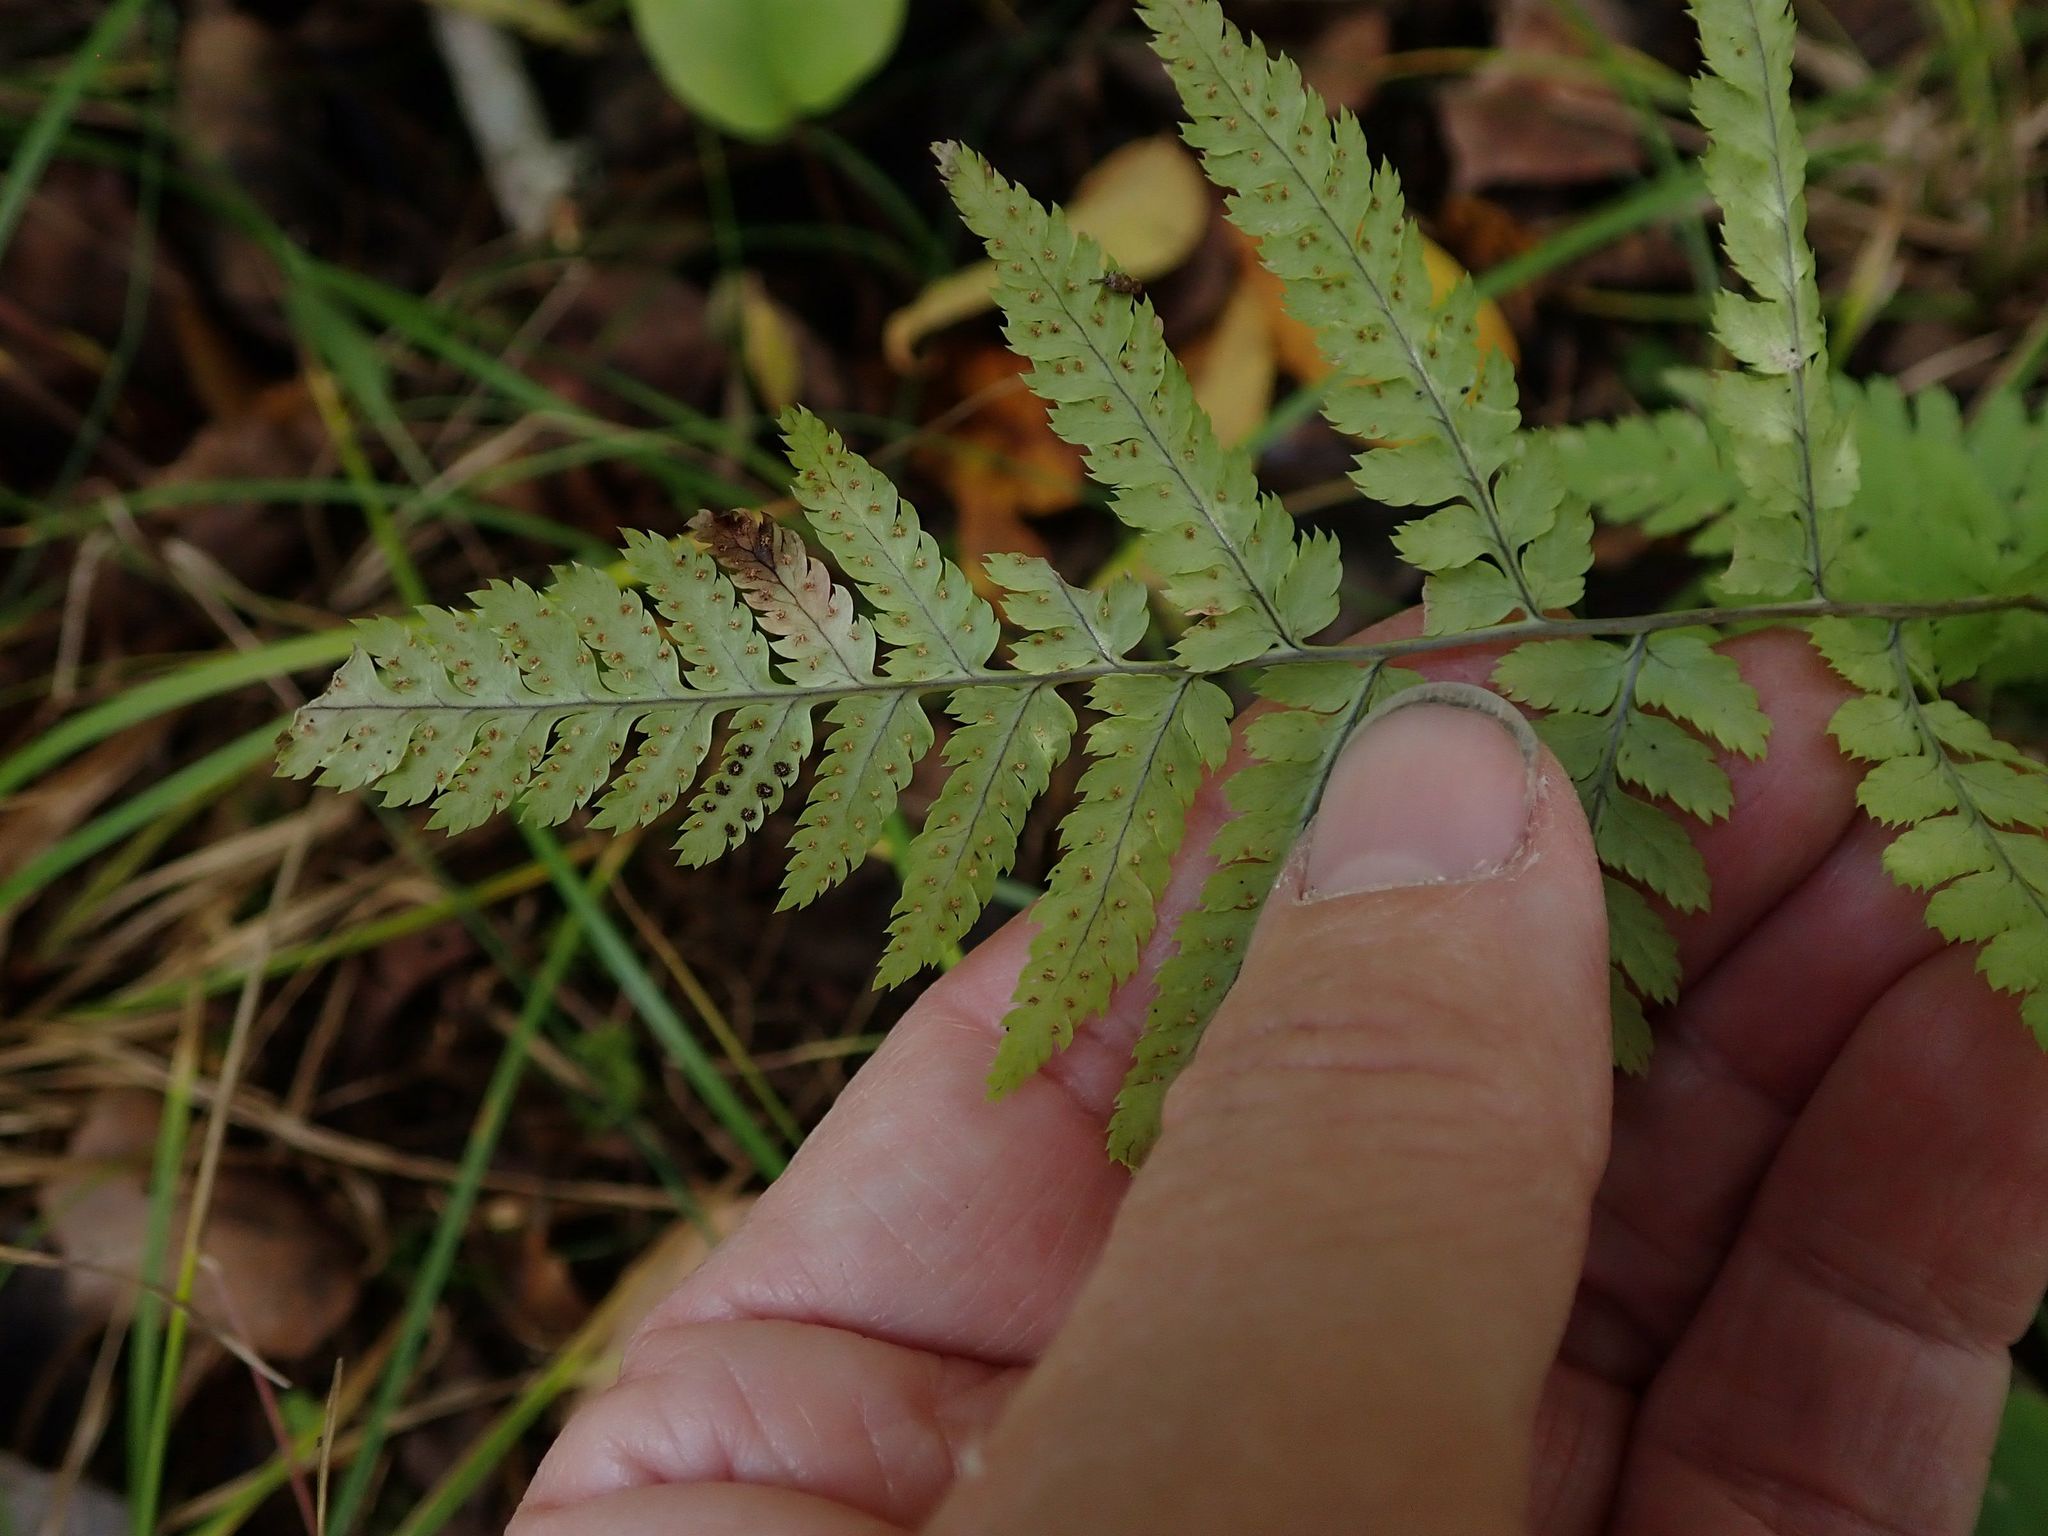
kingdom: Plantae
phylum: Tracheophyta
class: Polypodiopsida
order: Polypodiales
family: Dryopteridaceae
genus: Dryopteris
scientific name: Dryopteris carthusiana
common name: Narrow buckler-fern
